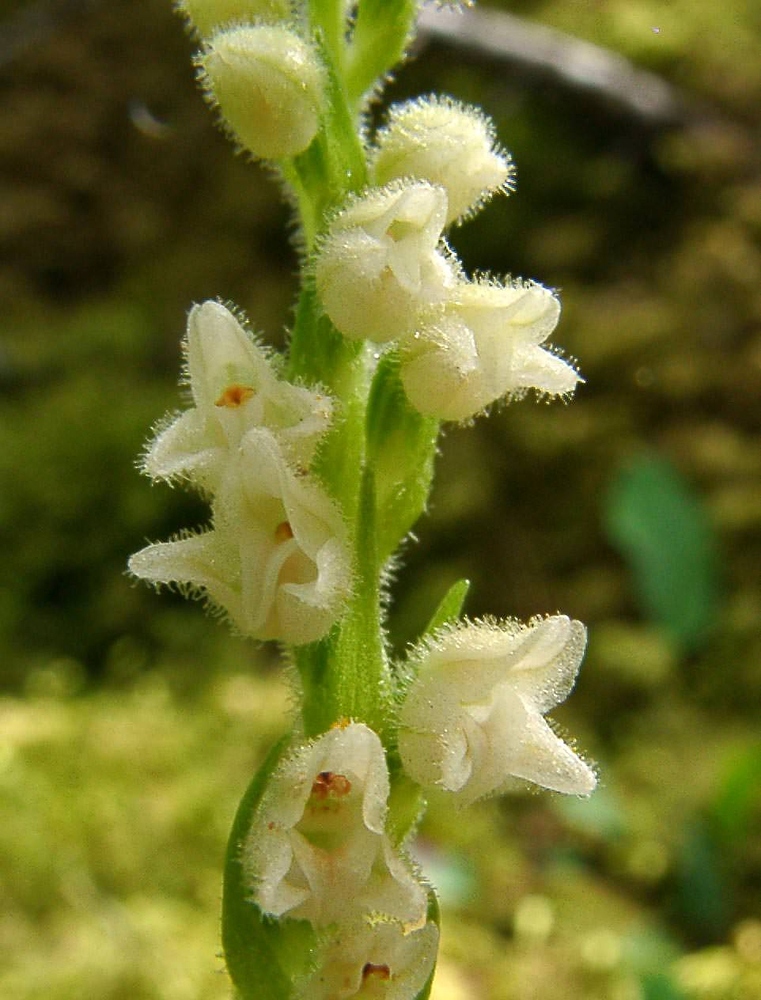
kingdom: Plantae
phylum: Tracheophyta
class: Liliopsida
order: Asparagales
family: Orchidaceae
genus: Goodyera
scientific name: Goodyera repens
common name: Creeping lady's-tresses
